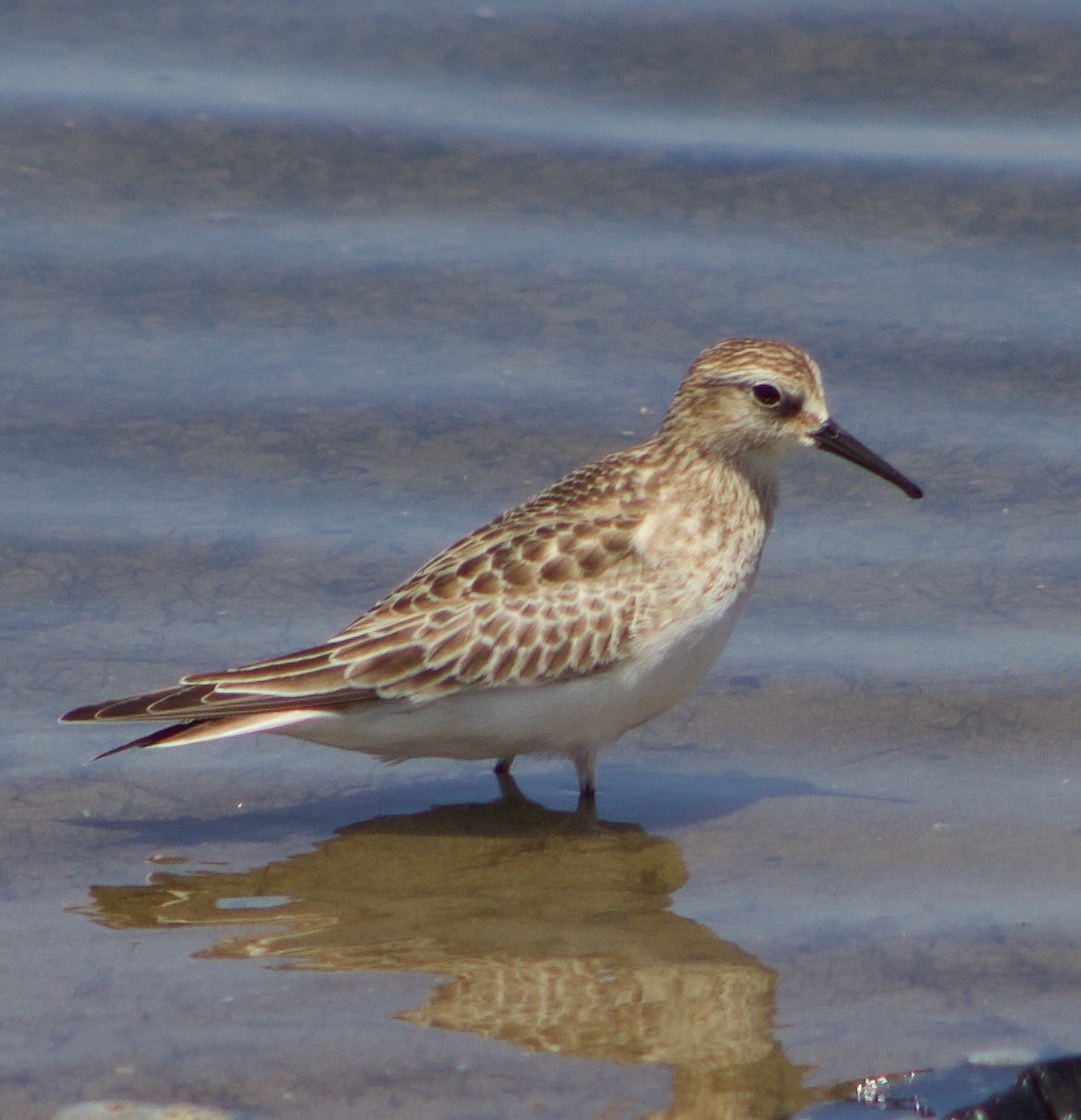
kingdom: Animalia
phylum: Chordata
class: Aves
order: Charadriiformes
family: Scolopacidae
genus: Calidris
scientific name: Calidris bairdii
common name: Baird's sandpiper
